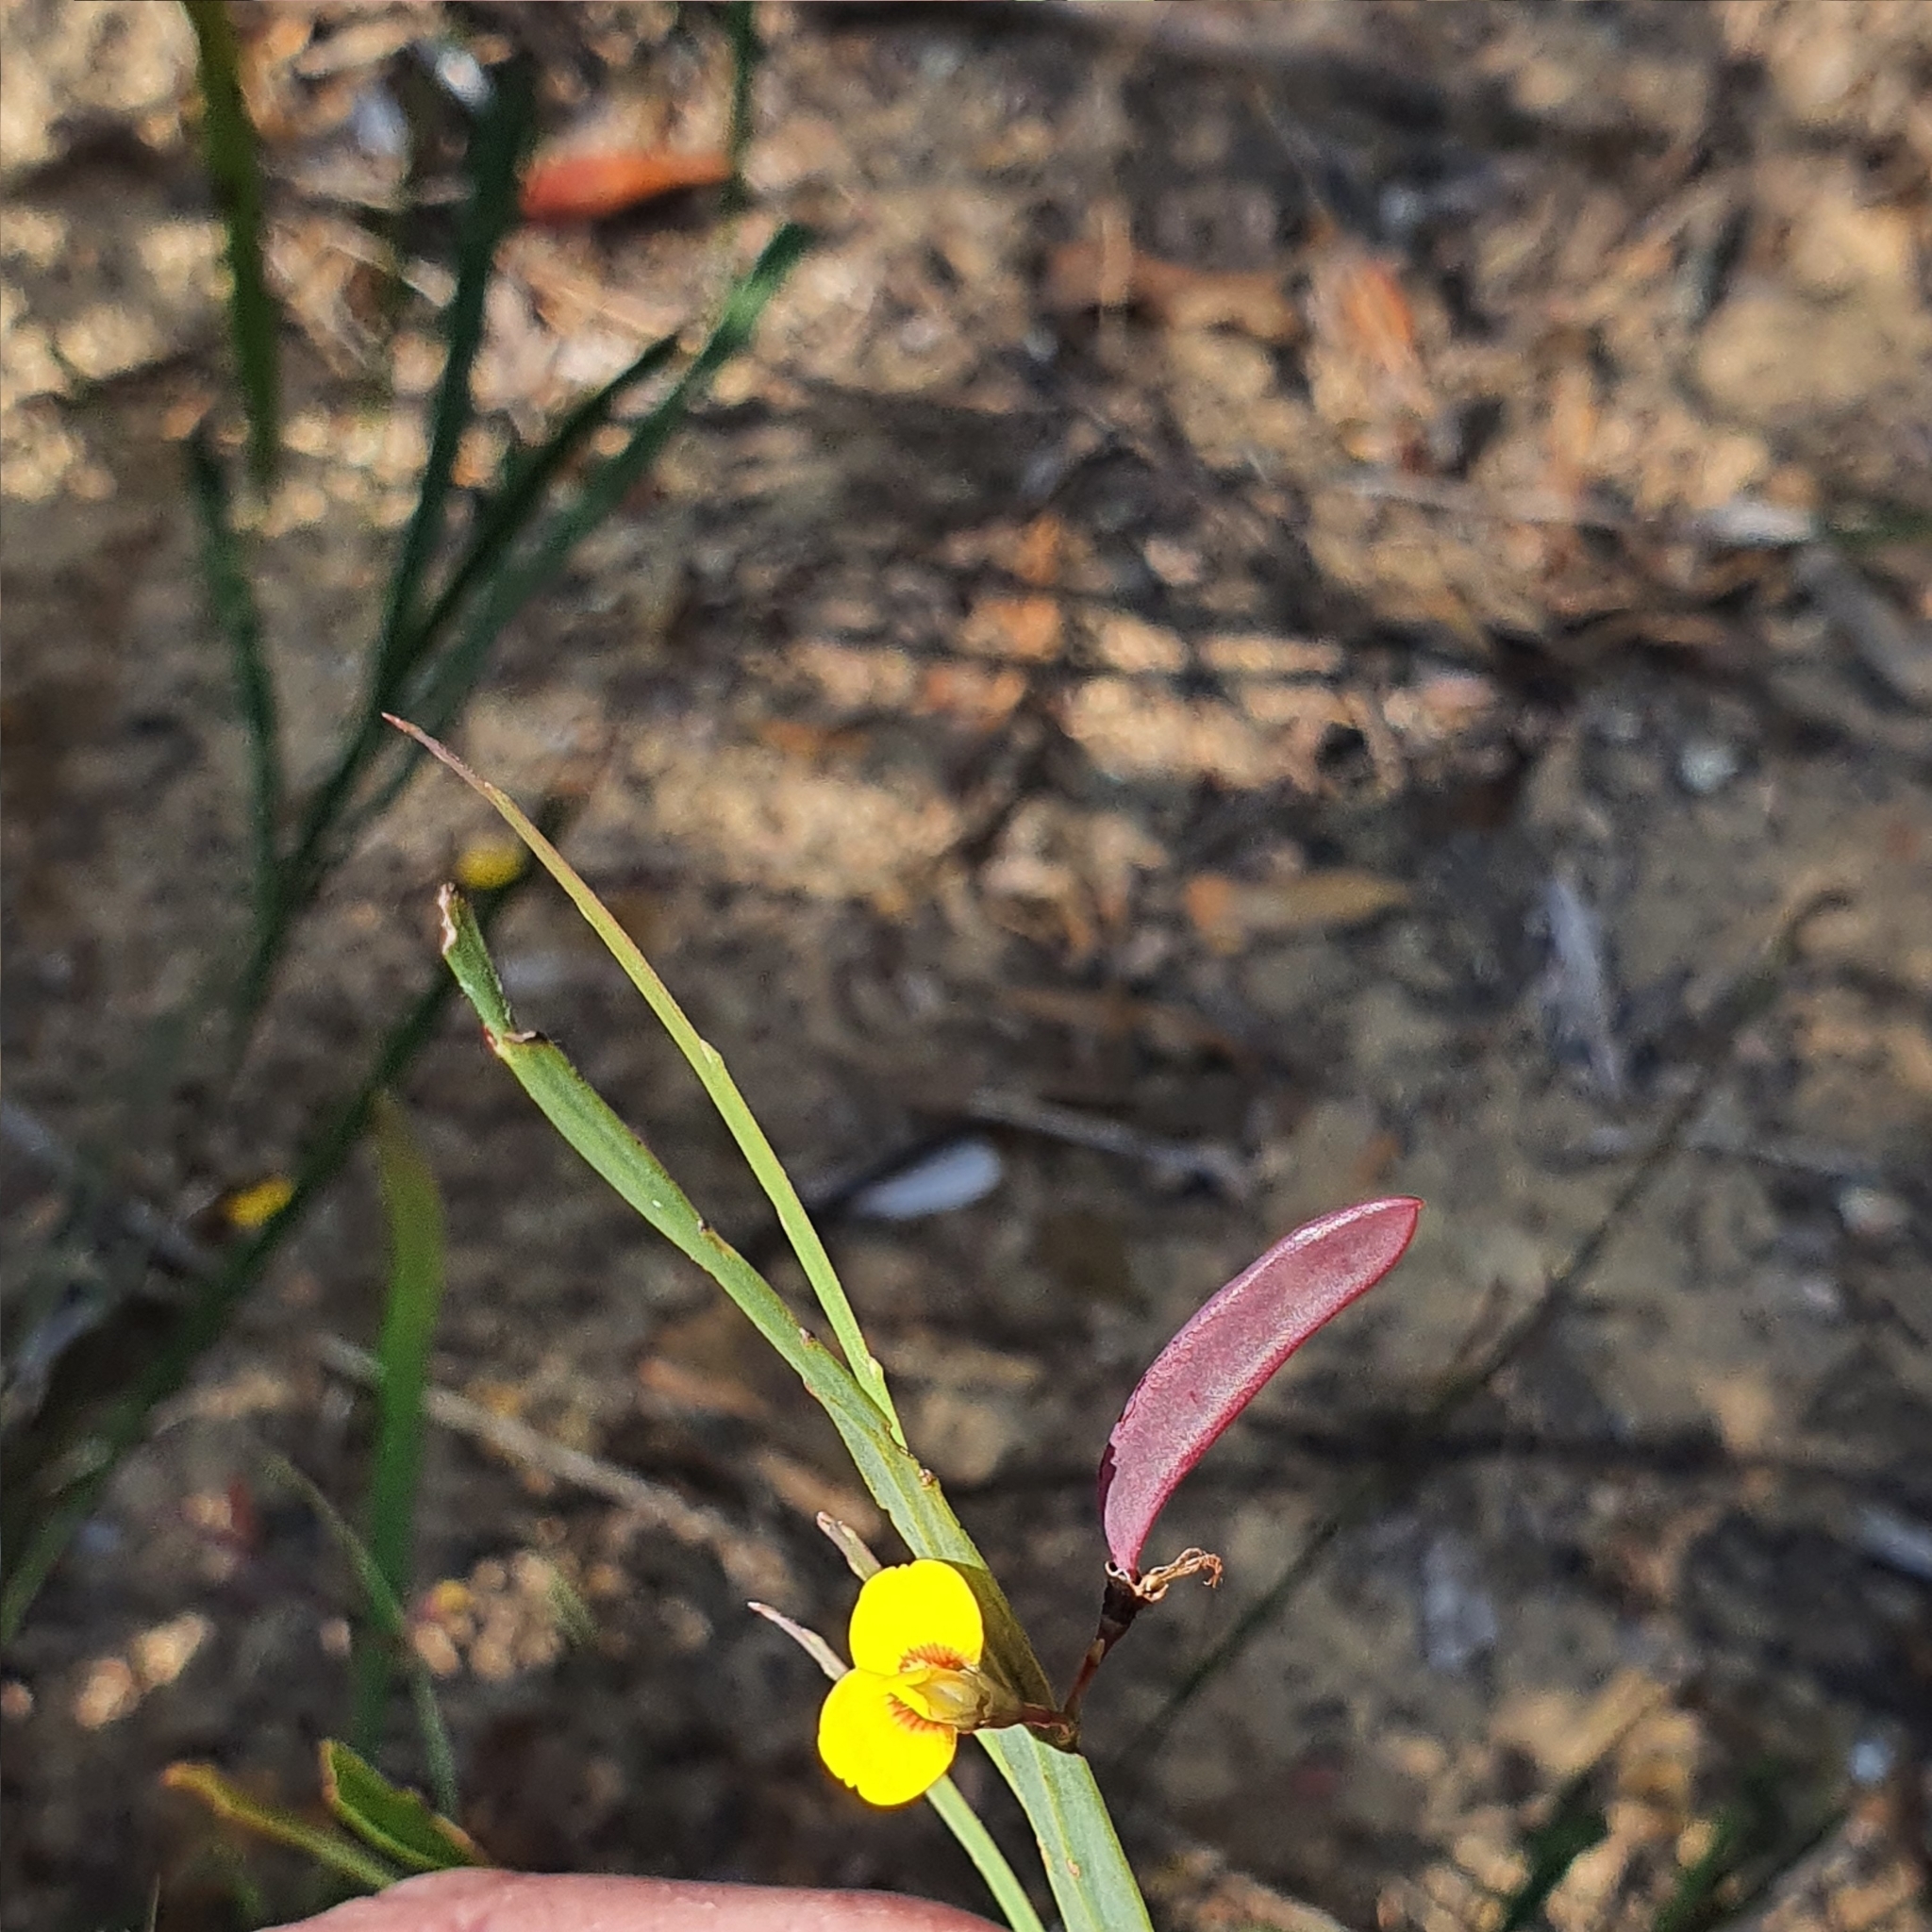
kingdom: Plantae
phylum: Tracheophyta
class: Magnoliopsida
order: Fabales
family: Fabaceae
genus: Bossiaea
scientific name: Bossiaea ensata
